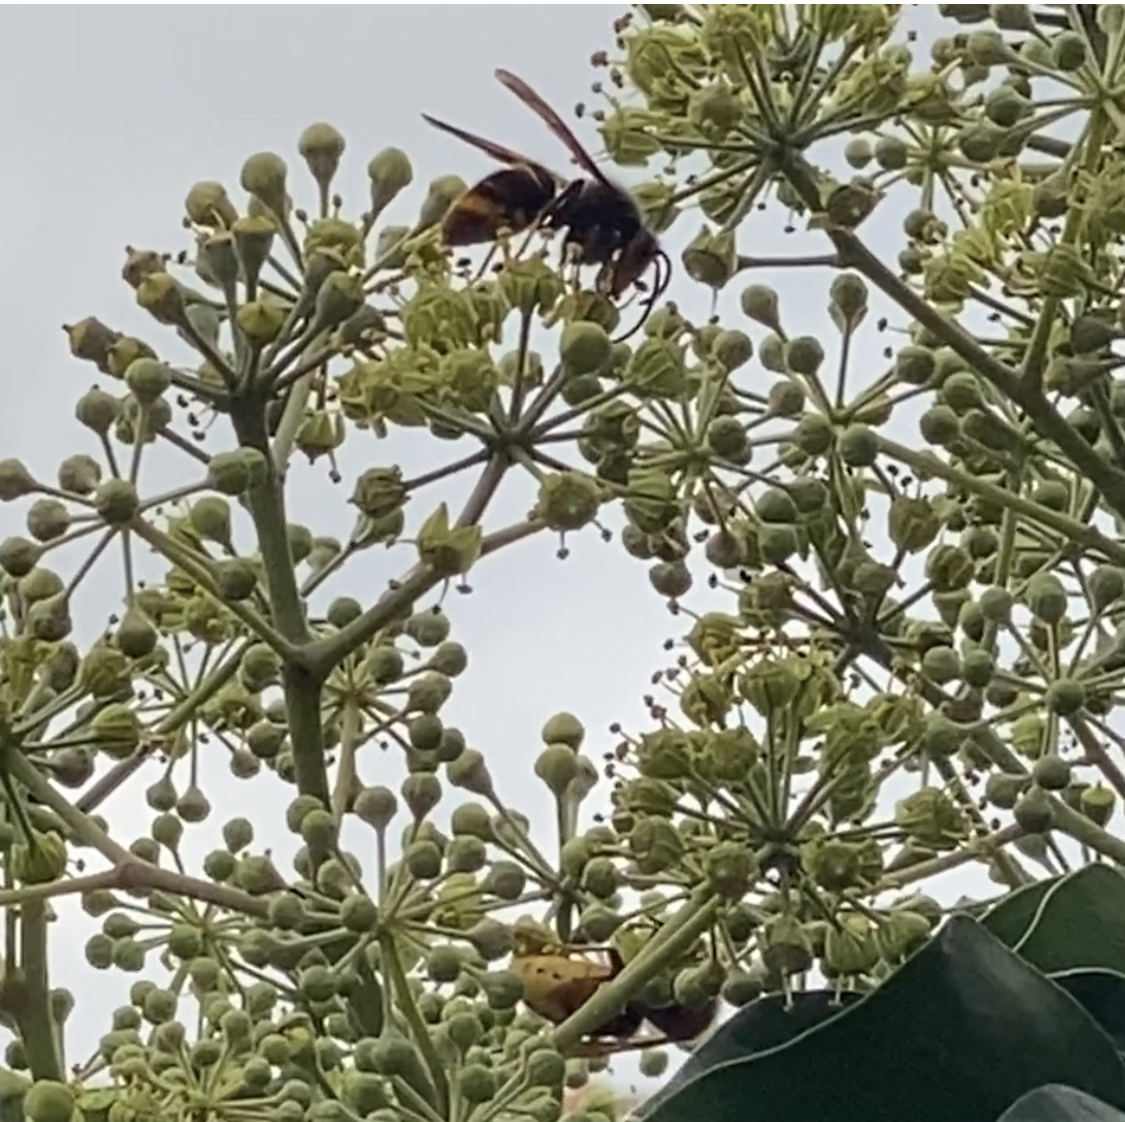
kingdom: Animalia
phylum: Arthropoda
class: Insecta
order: Hymenoptera
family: Vespidae
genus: Vespa
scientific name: Vespa velutina
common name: Asian hornet
